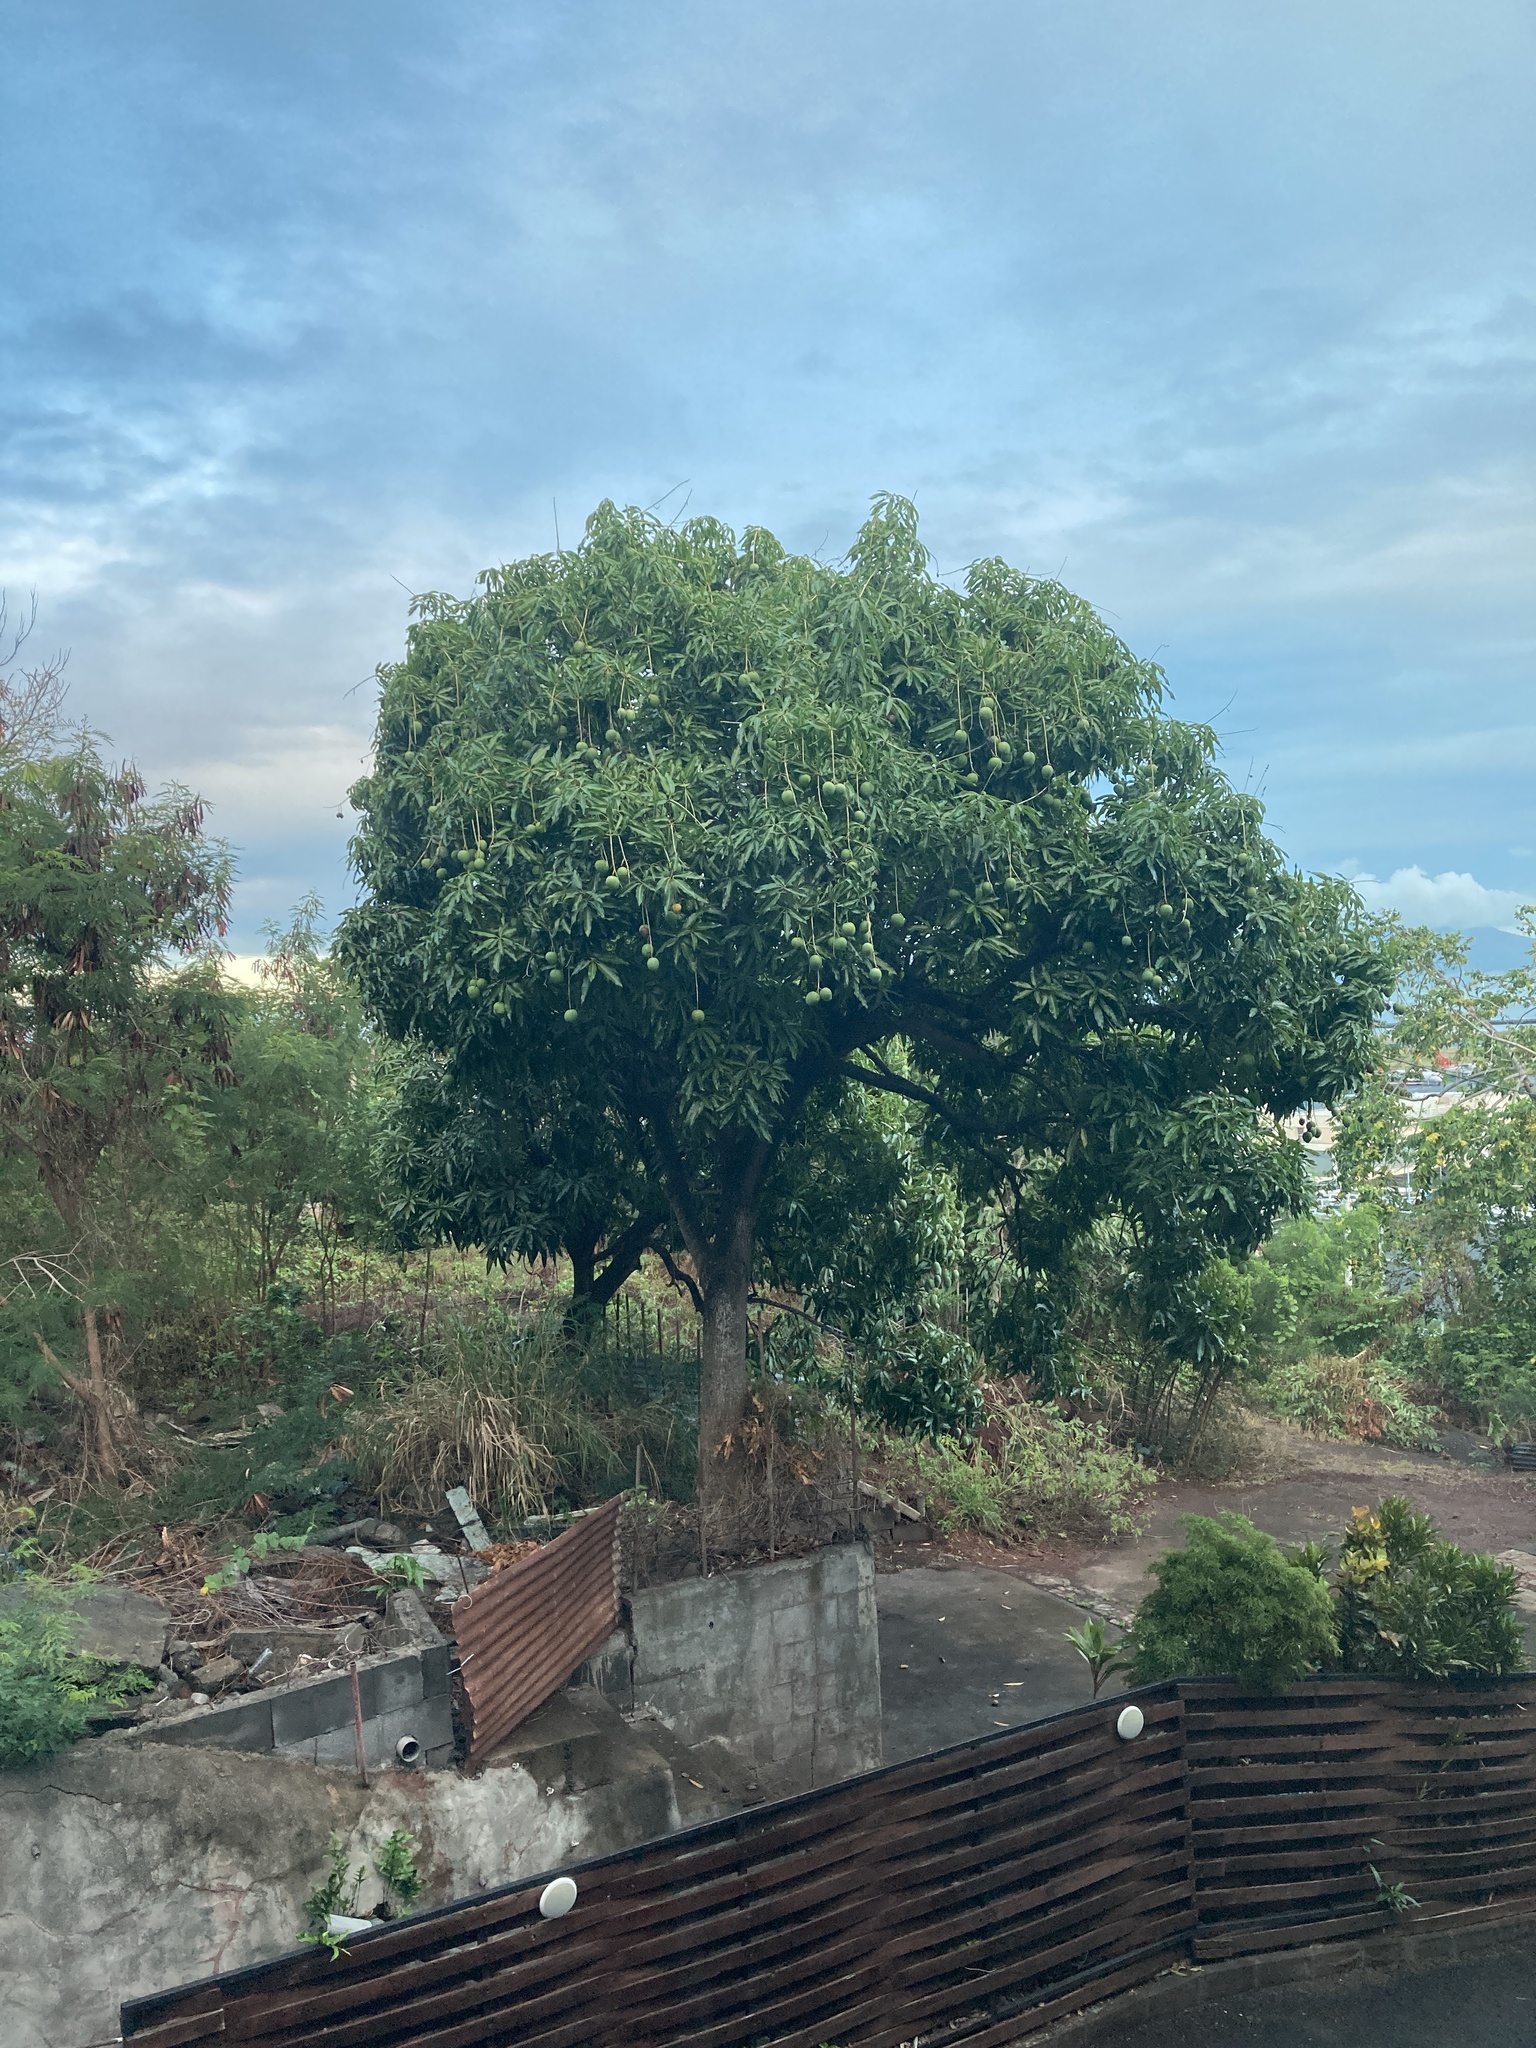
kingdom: Plantae
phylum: Tracheophyta
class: Magnoliopsida
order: Sapindales
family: Anacardiaceae
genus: Mangifera
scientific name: Mangifera indica
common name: Mango
